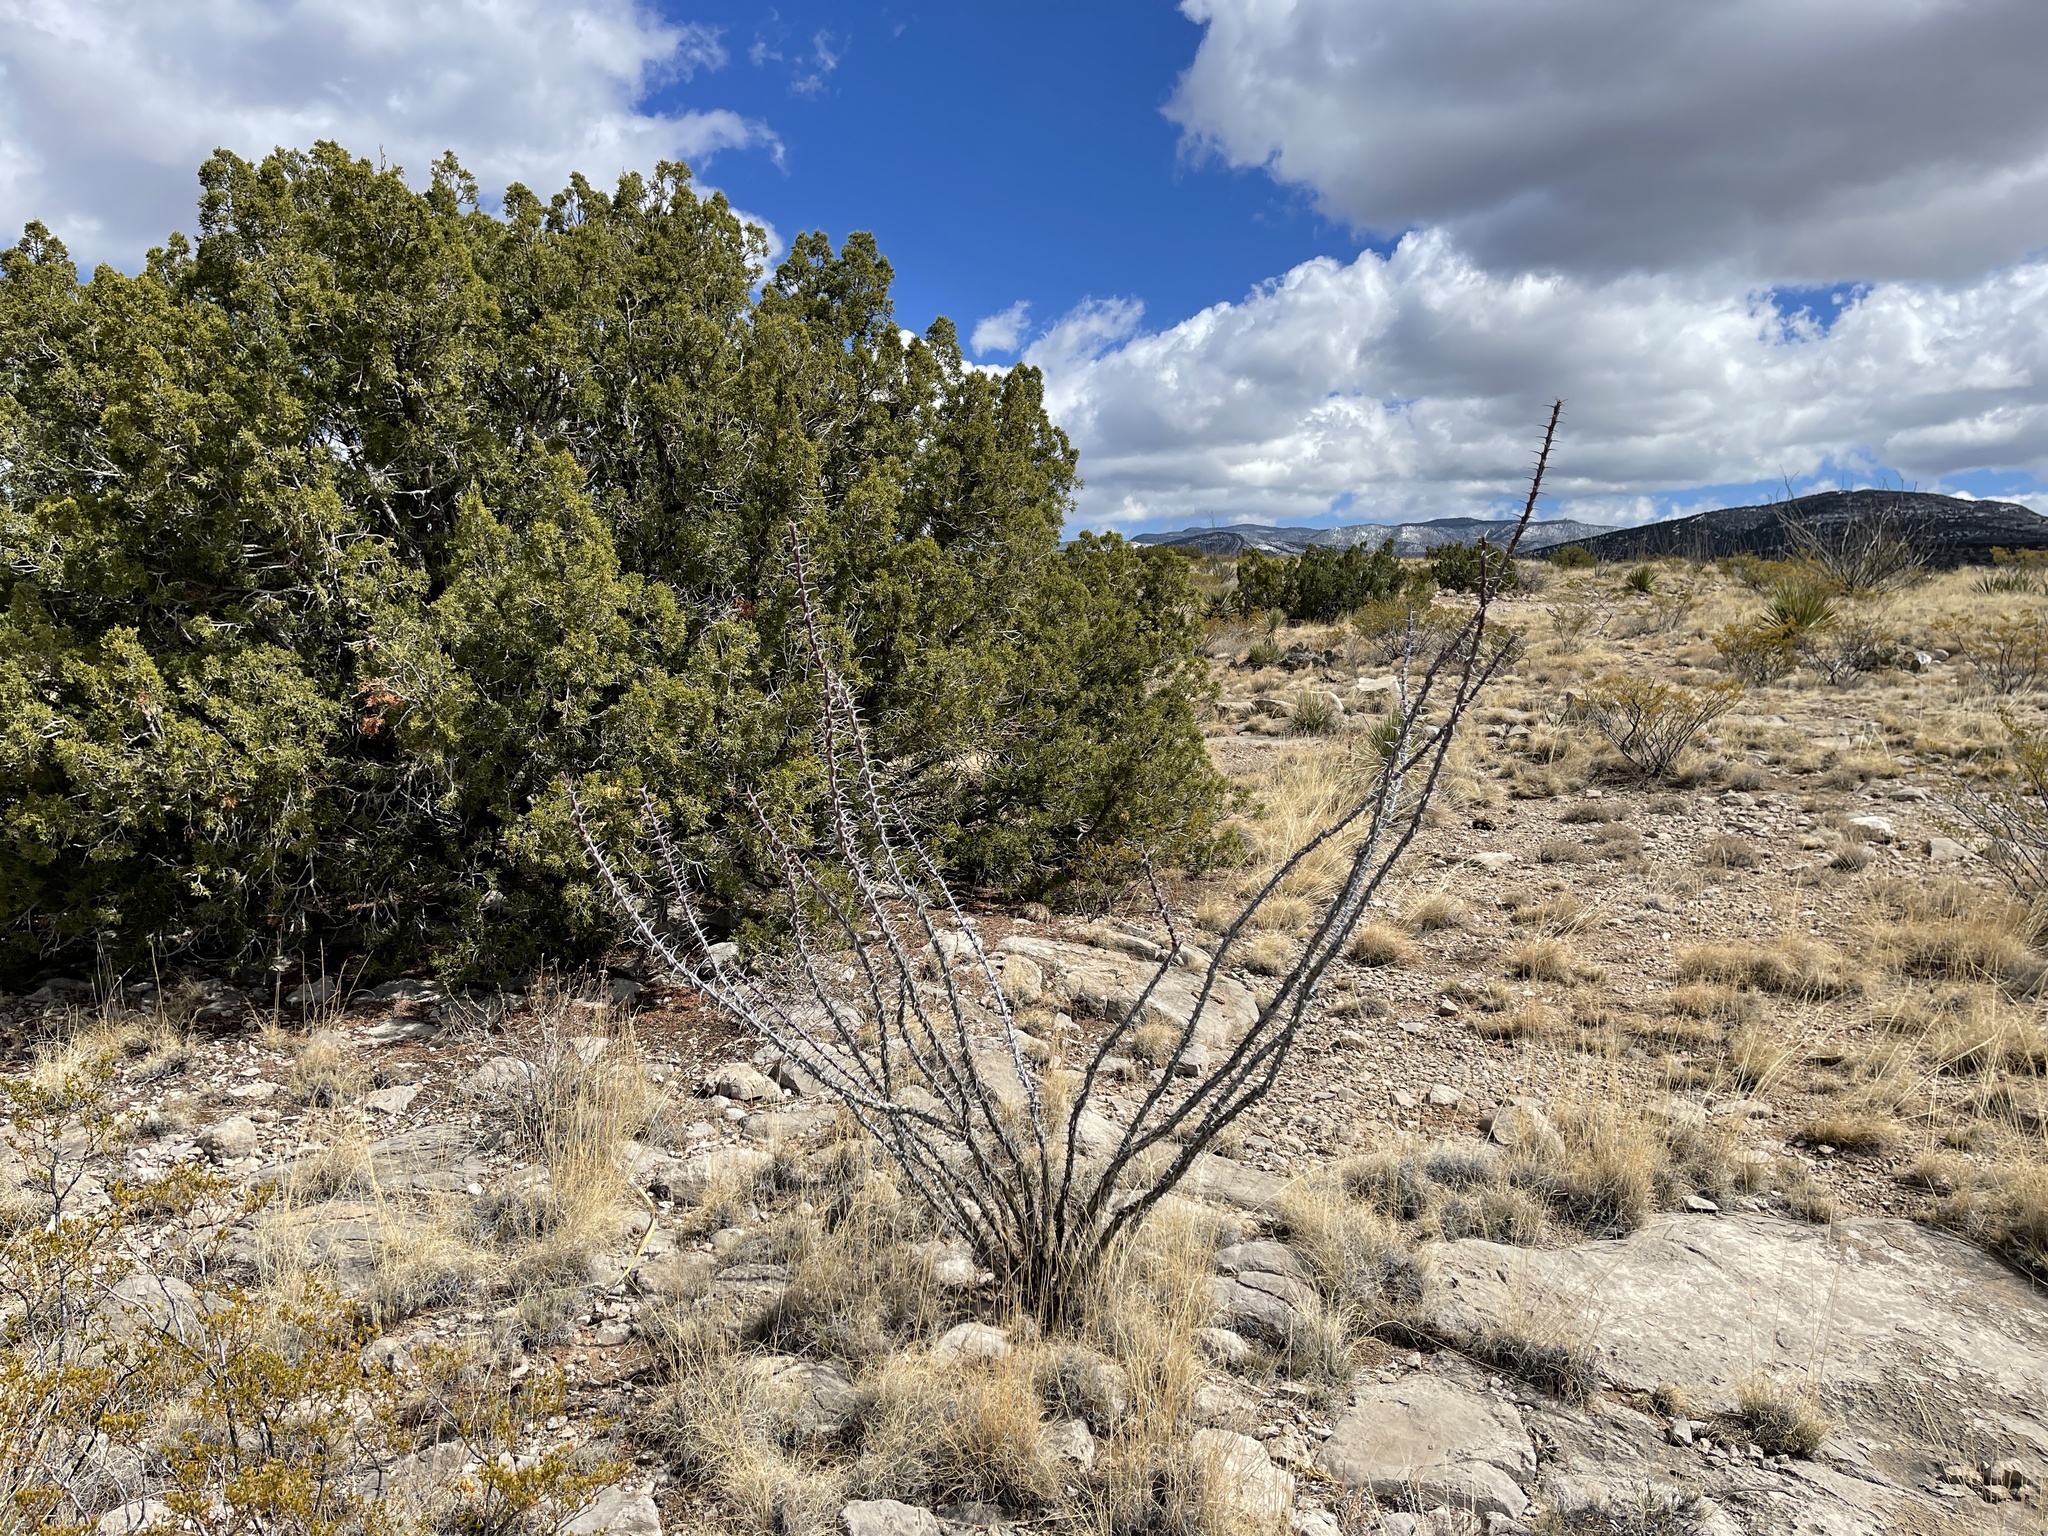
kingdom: Plantae
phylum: Tracheophyta
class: Magnoliopsida
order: Ericales
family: Fouquieriaceae
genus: Fouquieria
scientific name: Fouquieria splendens
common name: Vine-cactus
